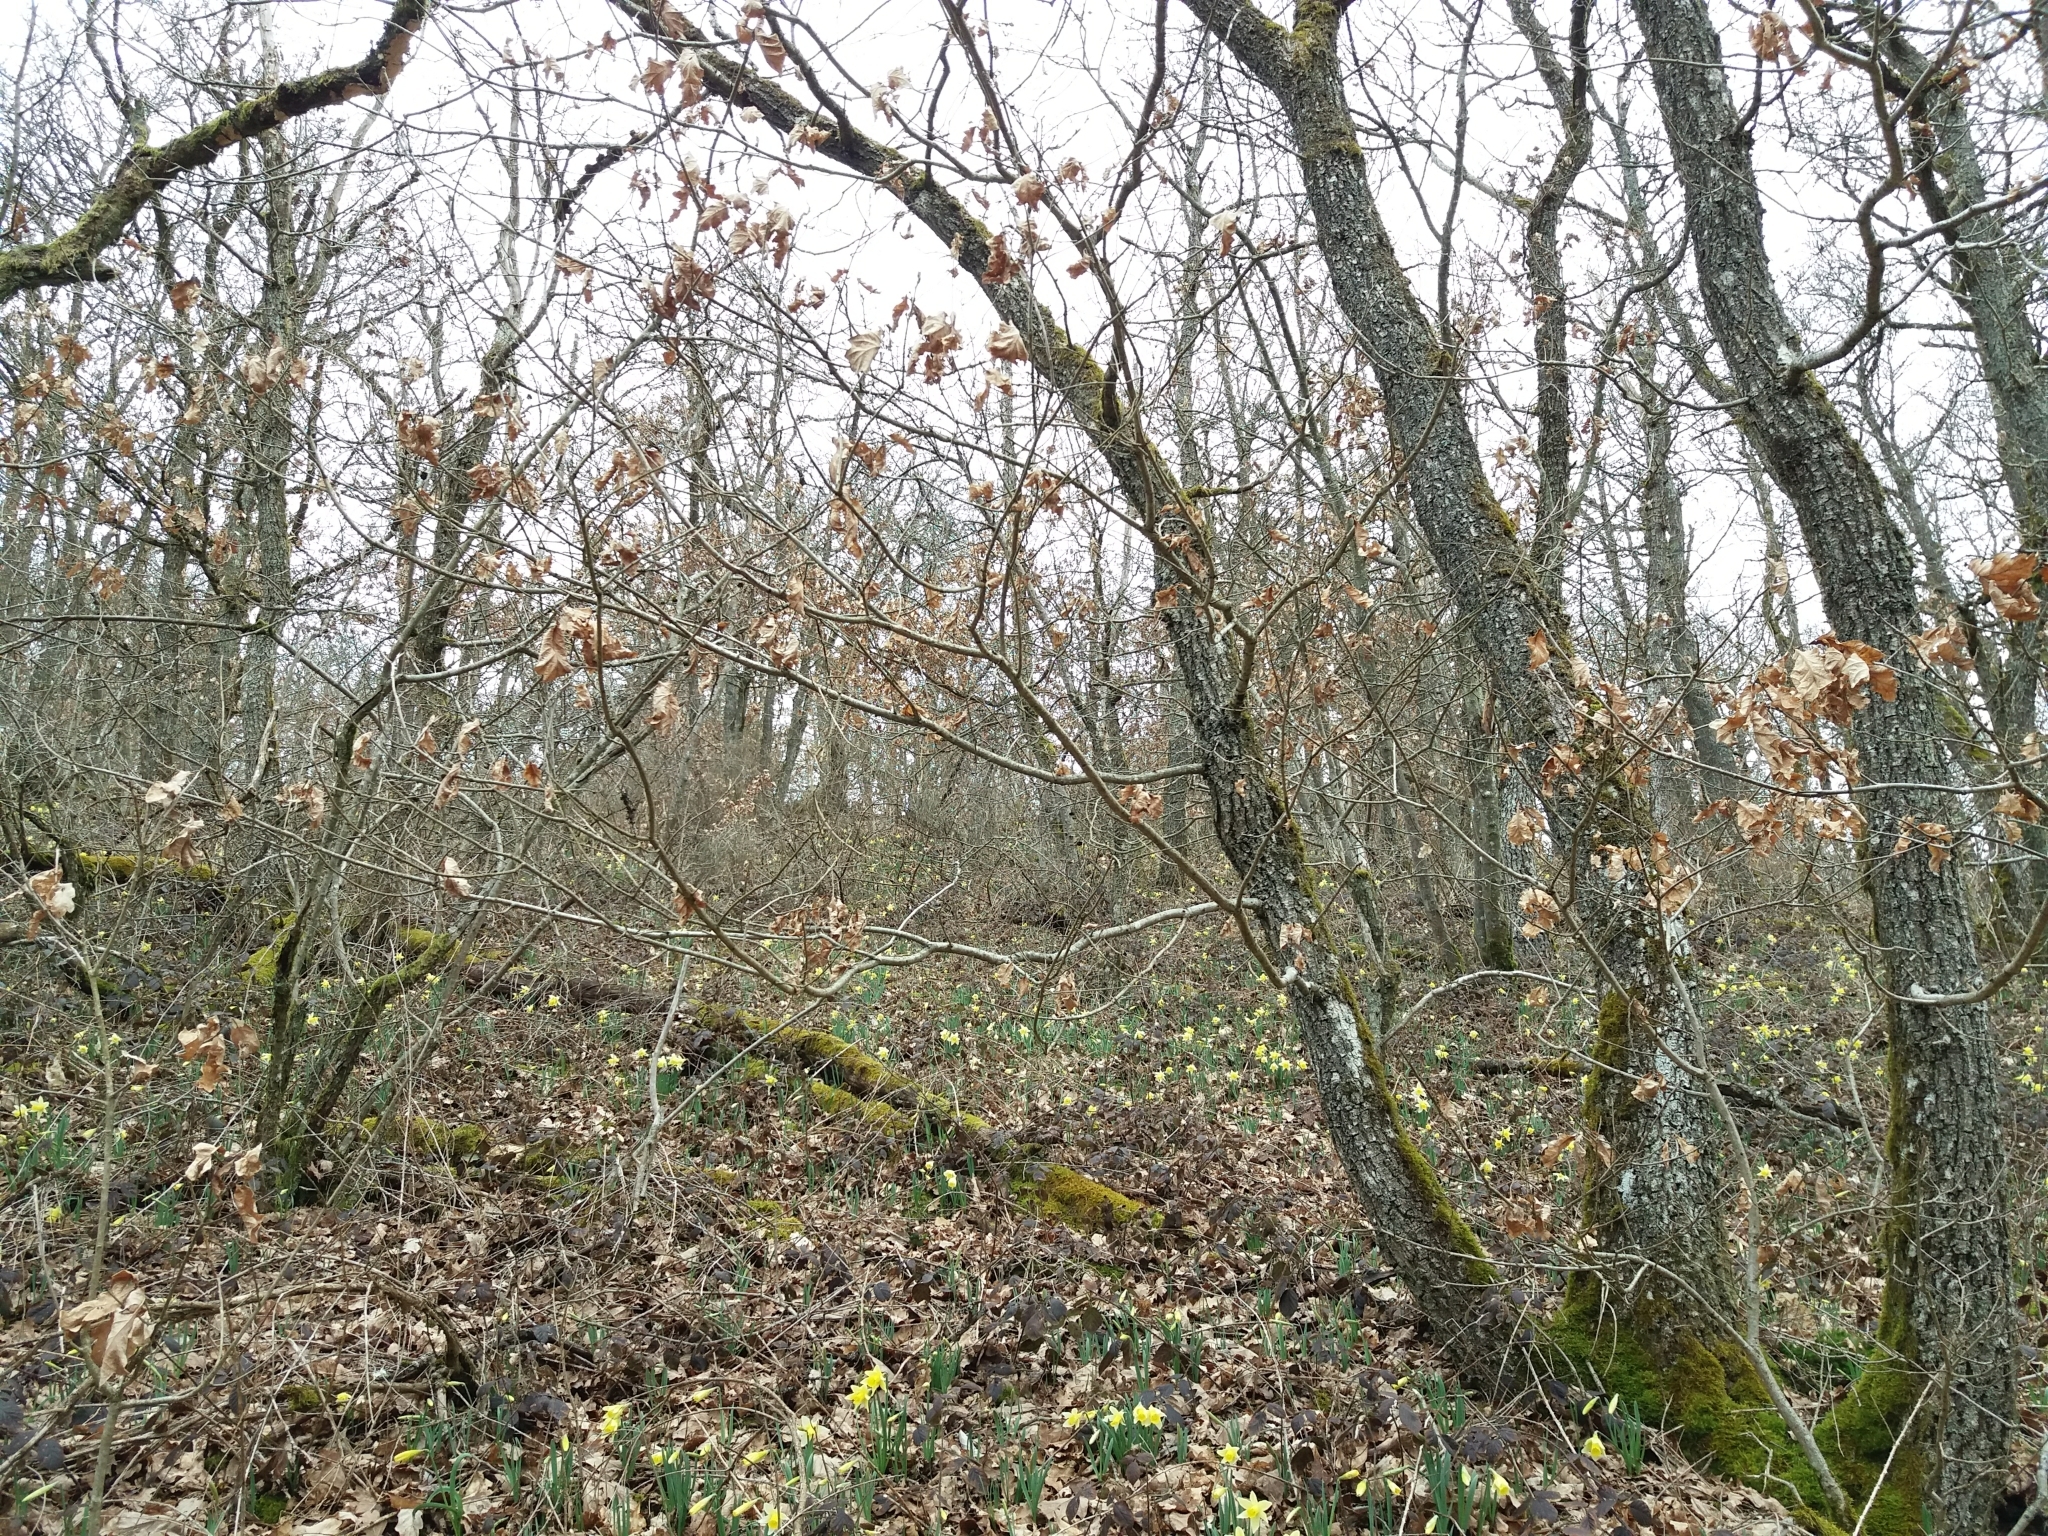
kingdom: Plantae
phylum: Tracheophyta
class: Magnoliopsida
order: Fagales
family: Fagaceae
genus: Quercus
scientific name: Quercus petraea
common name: Sessile oak
